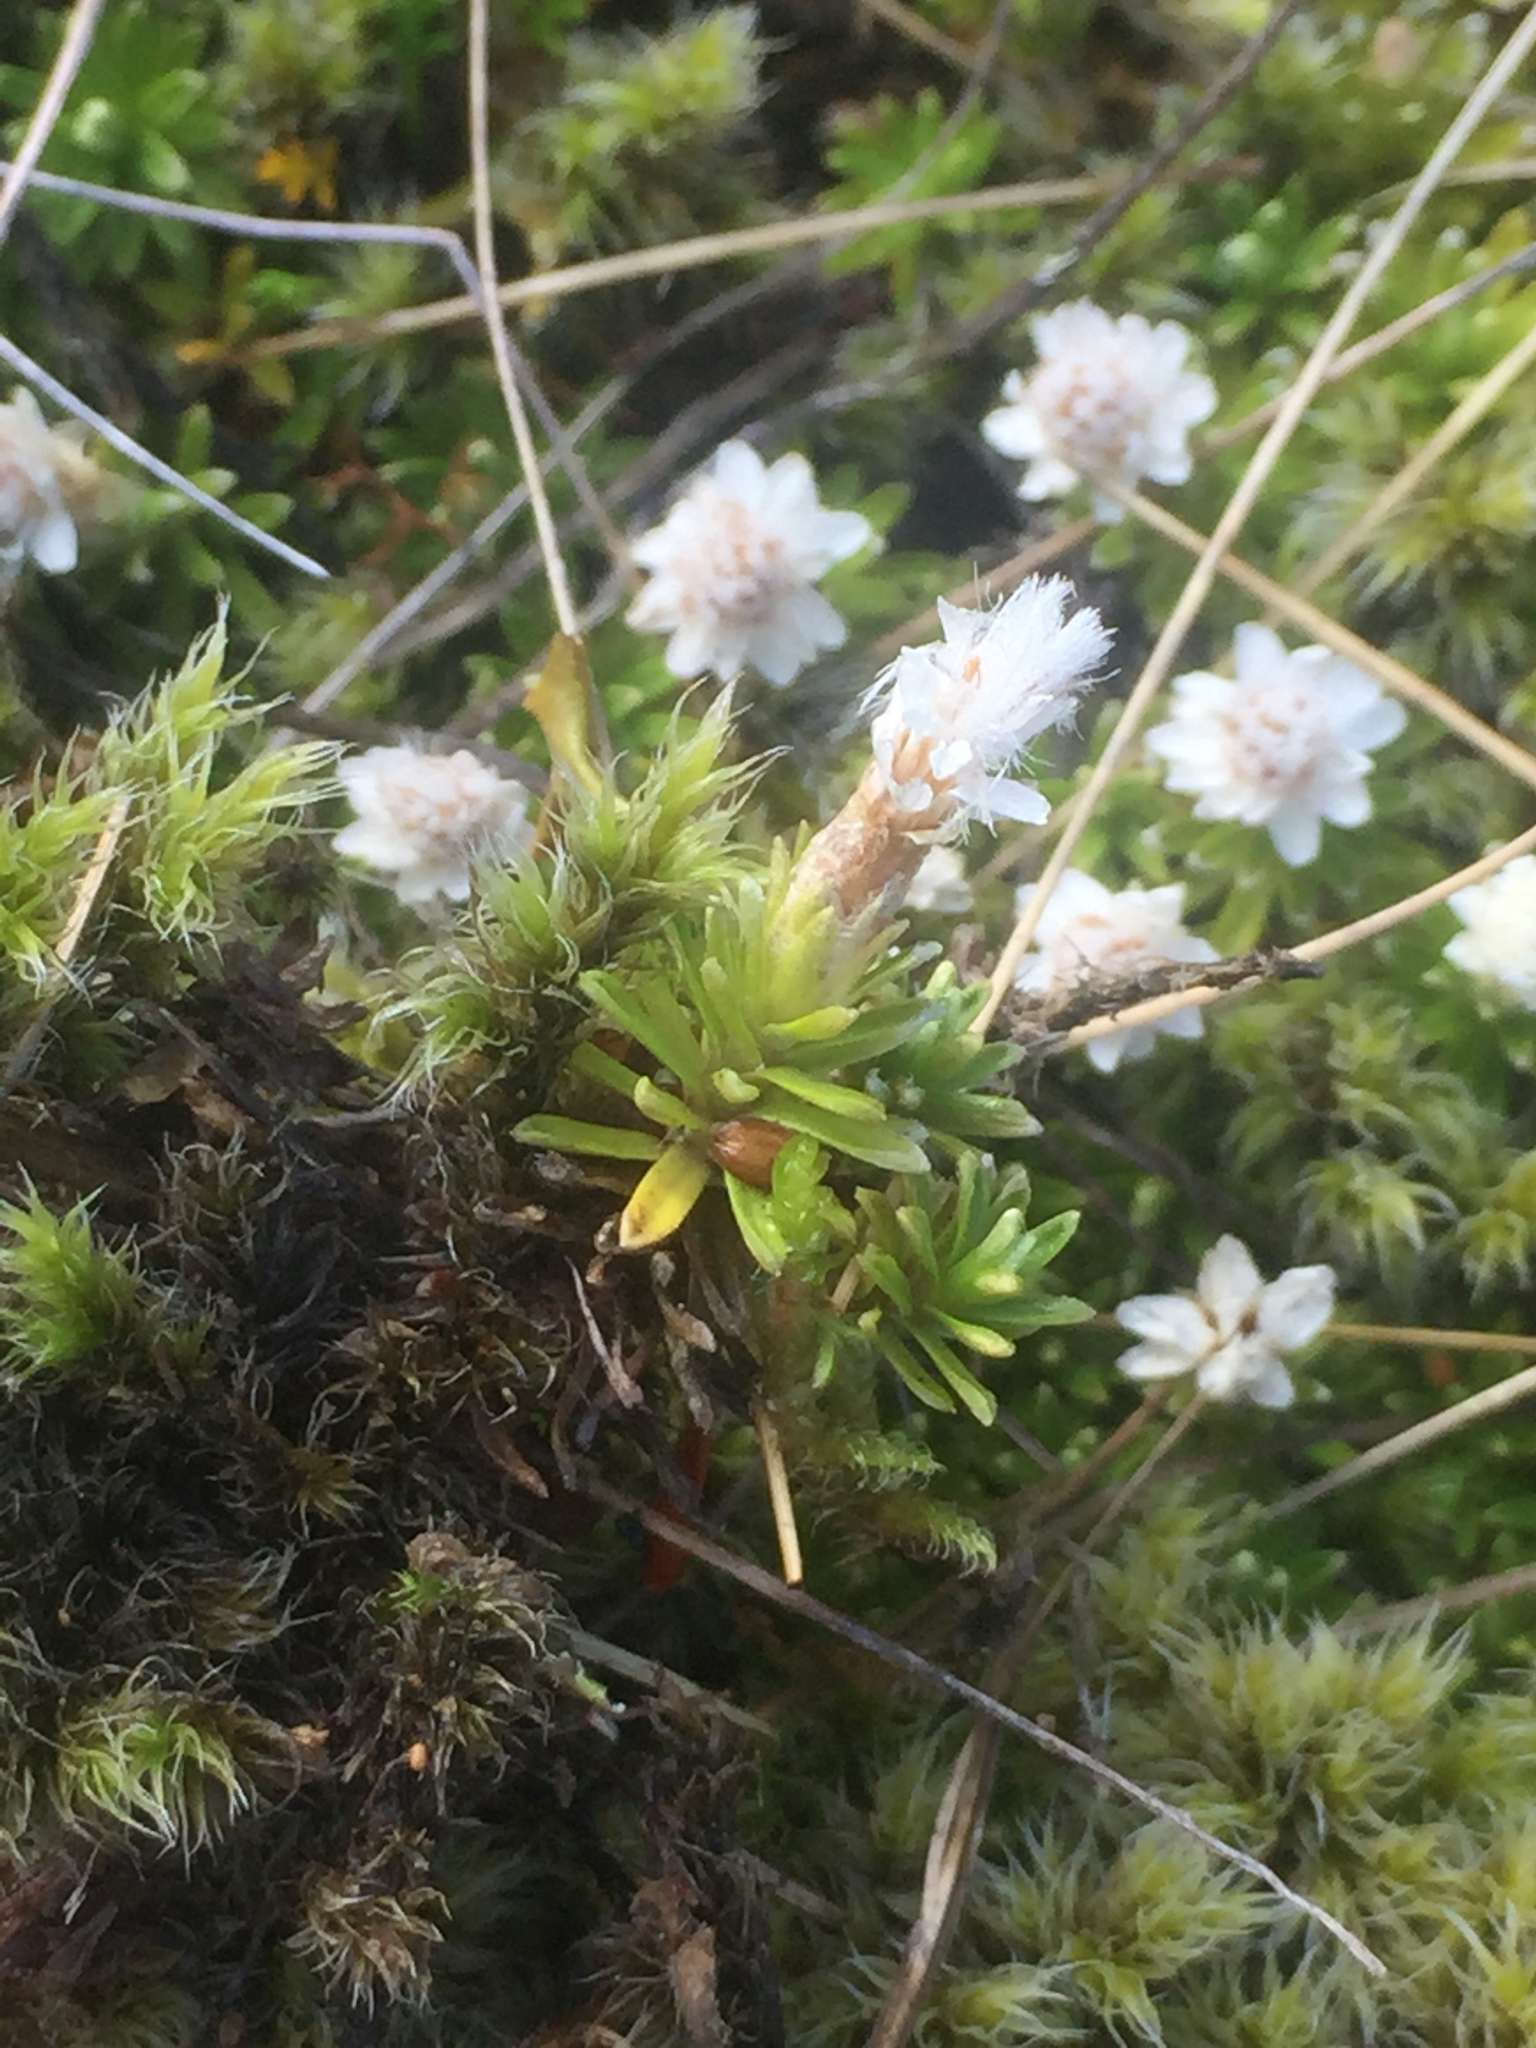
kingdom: Plantae
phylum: Tracheophyta
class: Magnoliopsida
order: Asterales
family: Asteraceae
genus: Raoulia
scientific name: Raoulia subsericea
